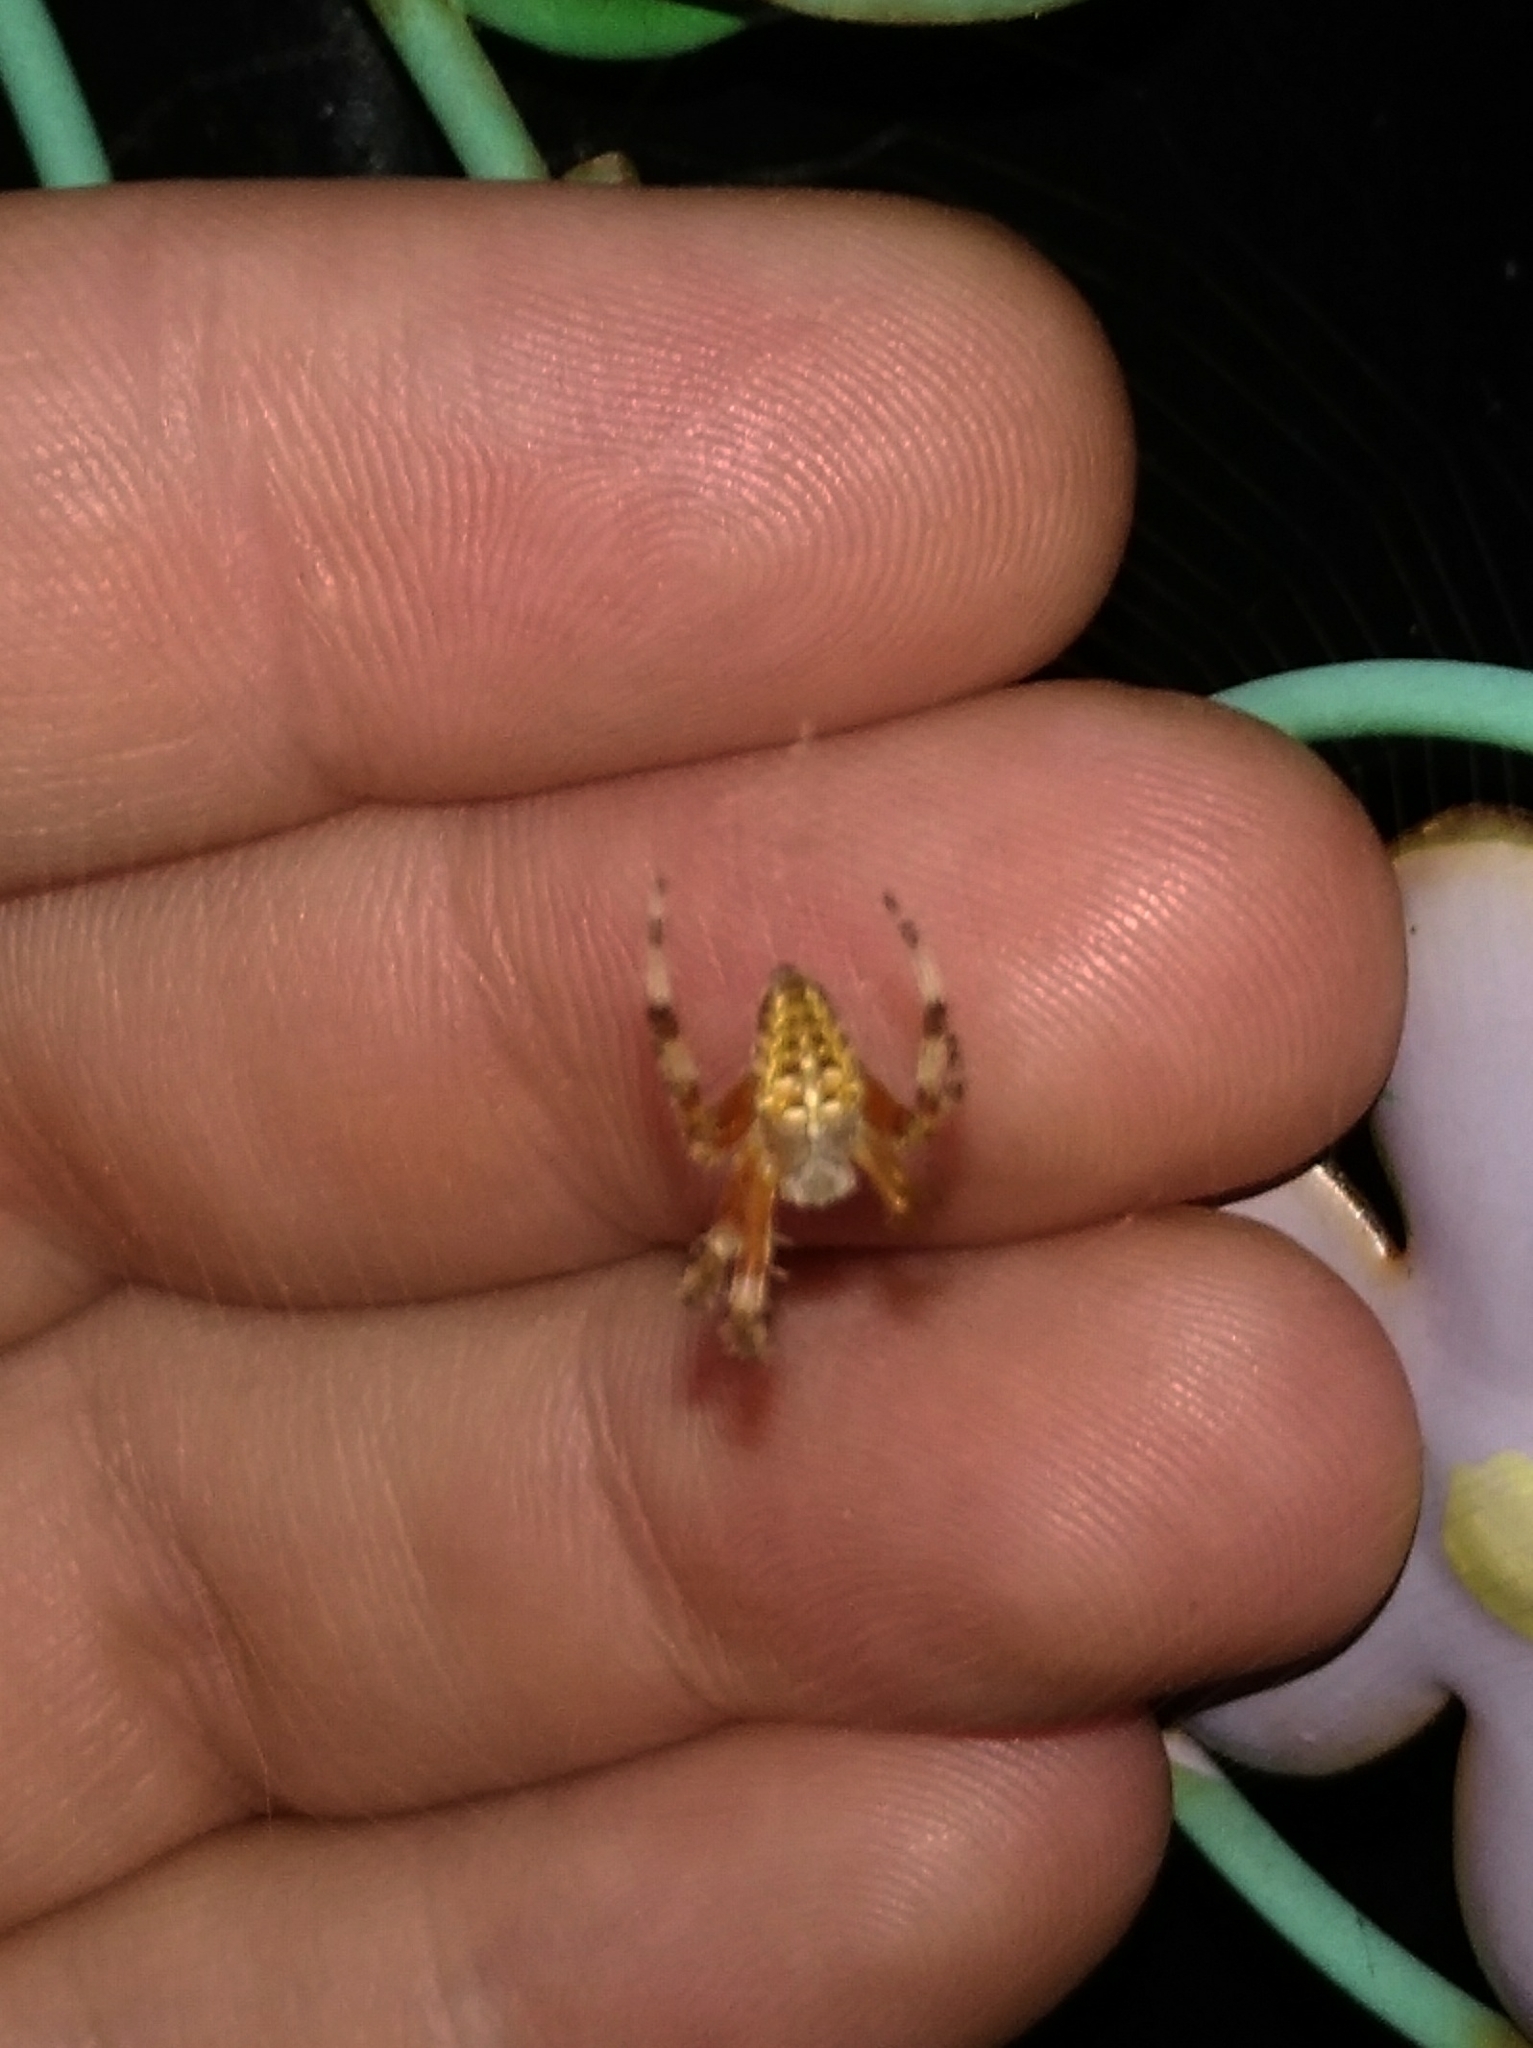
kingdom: Animalia
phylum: Arthropoda
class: Arachnida
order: Araneae
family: Araneidae
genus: Araneus
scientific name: Araneus diadematus
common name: Cross orbweaver
